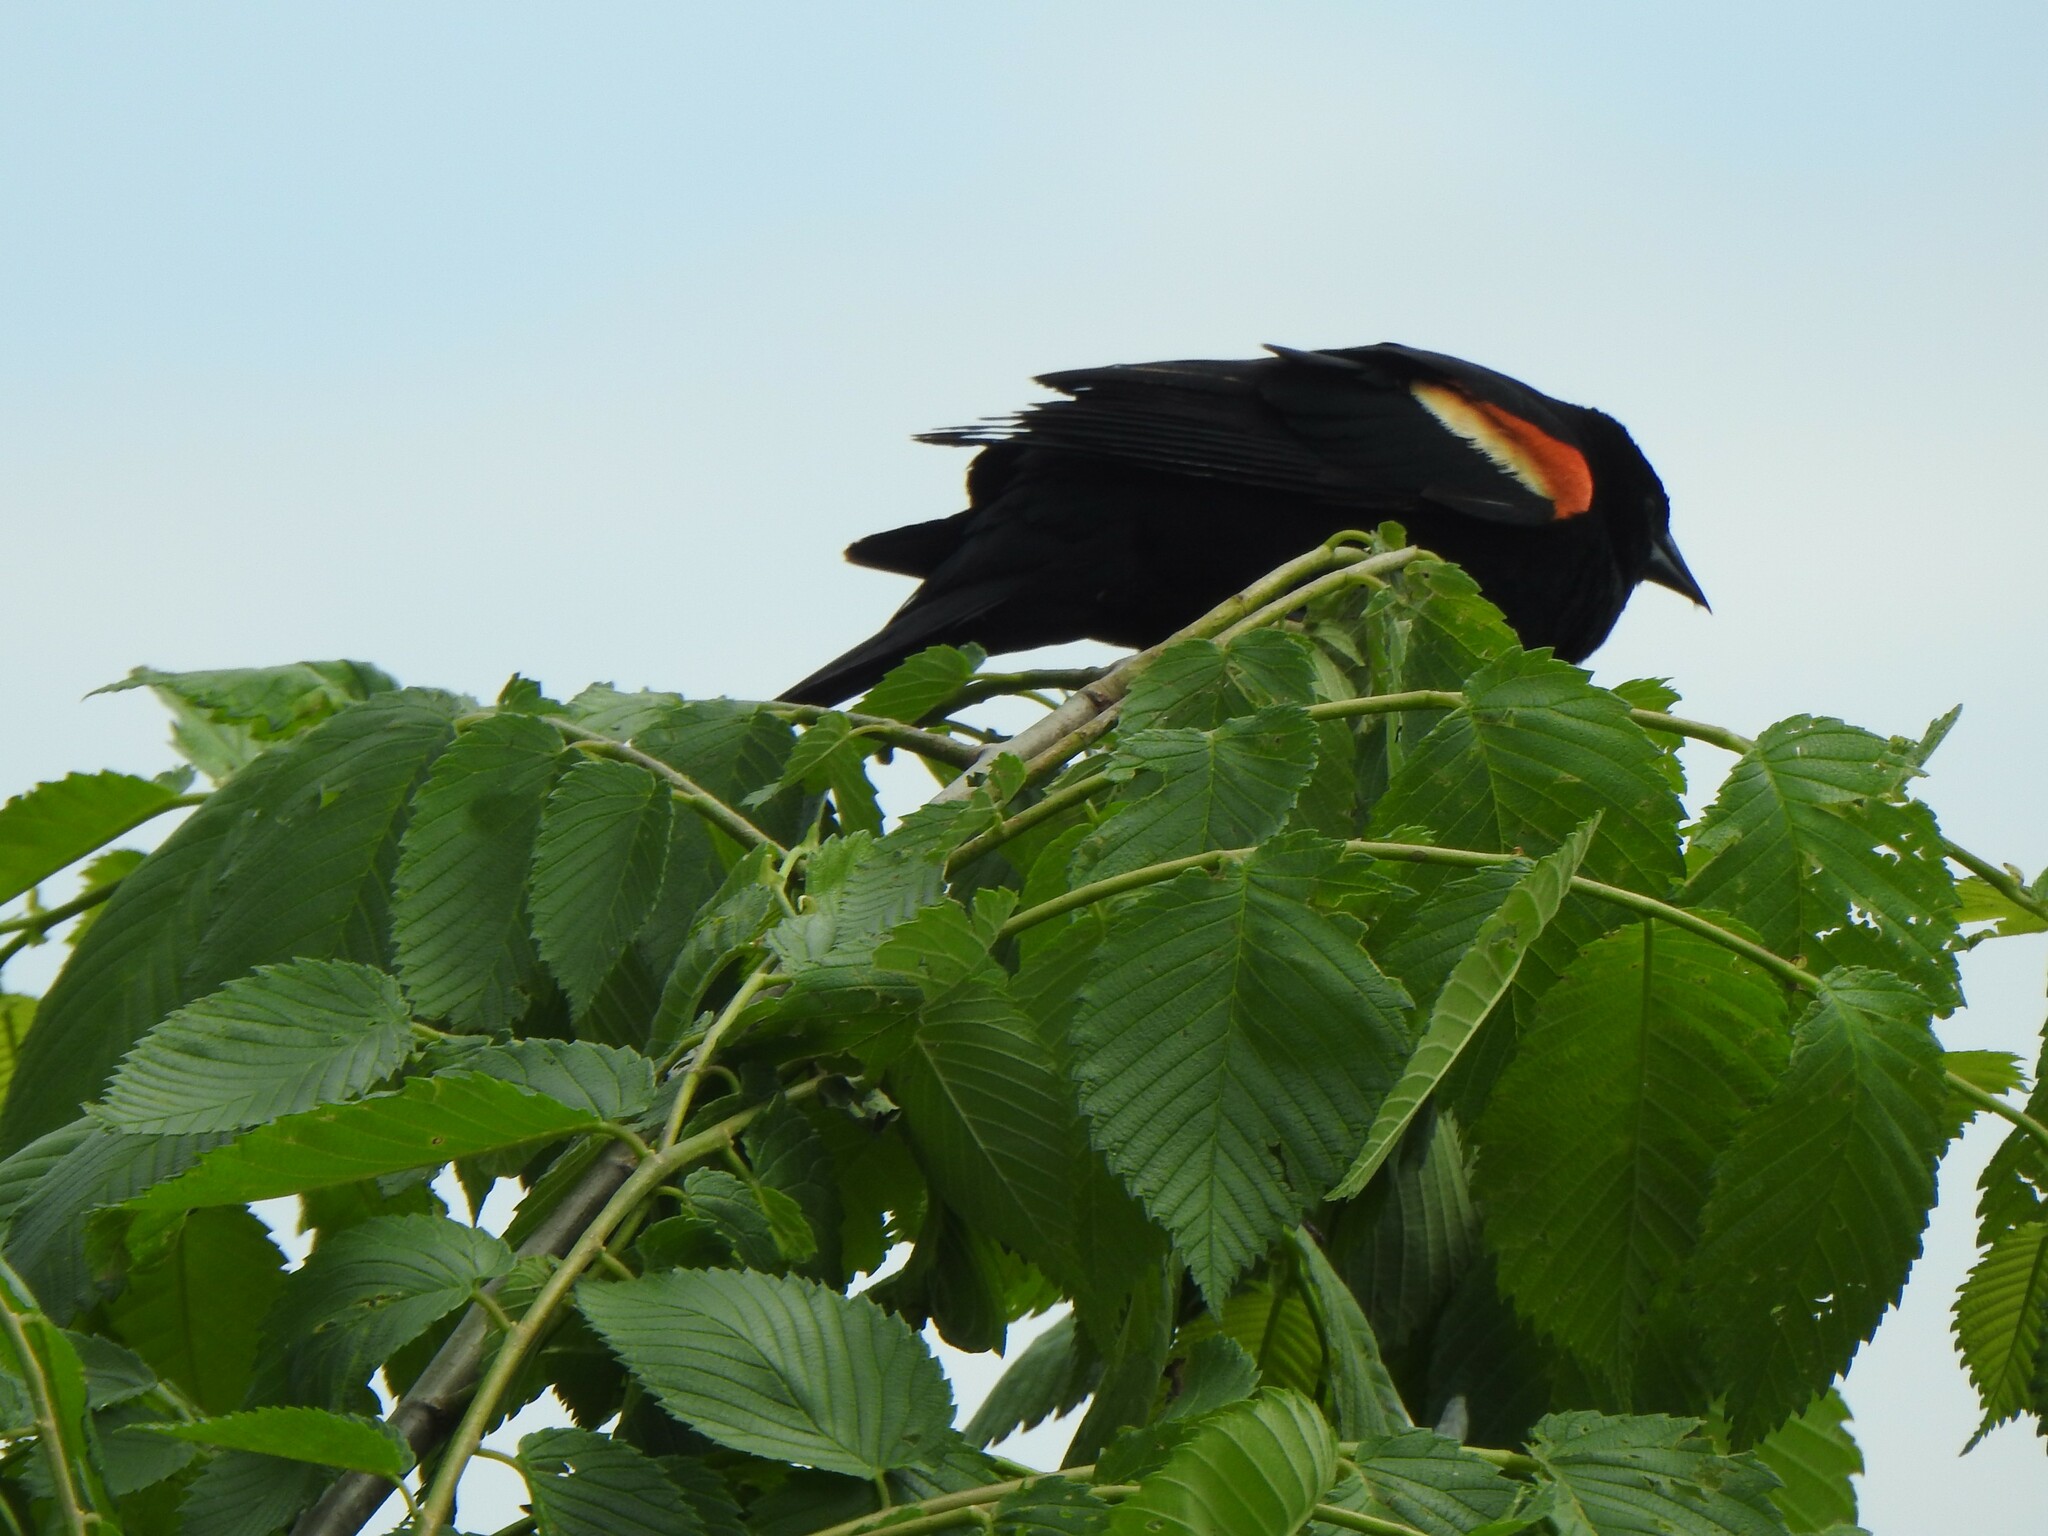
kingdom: Animalia
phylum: Chordata
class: Aves
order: Passeriformes
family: Icteridae
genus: Agelaius
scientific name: Agelaius phoeniceus
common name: Red-winged blackbird
